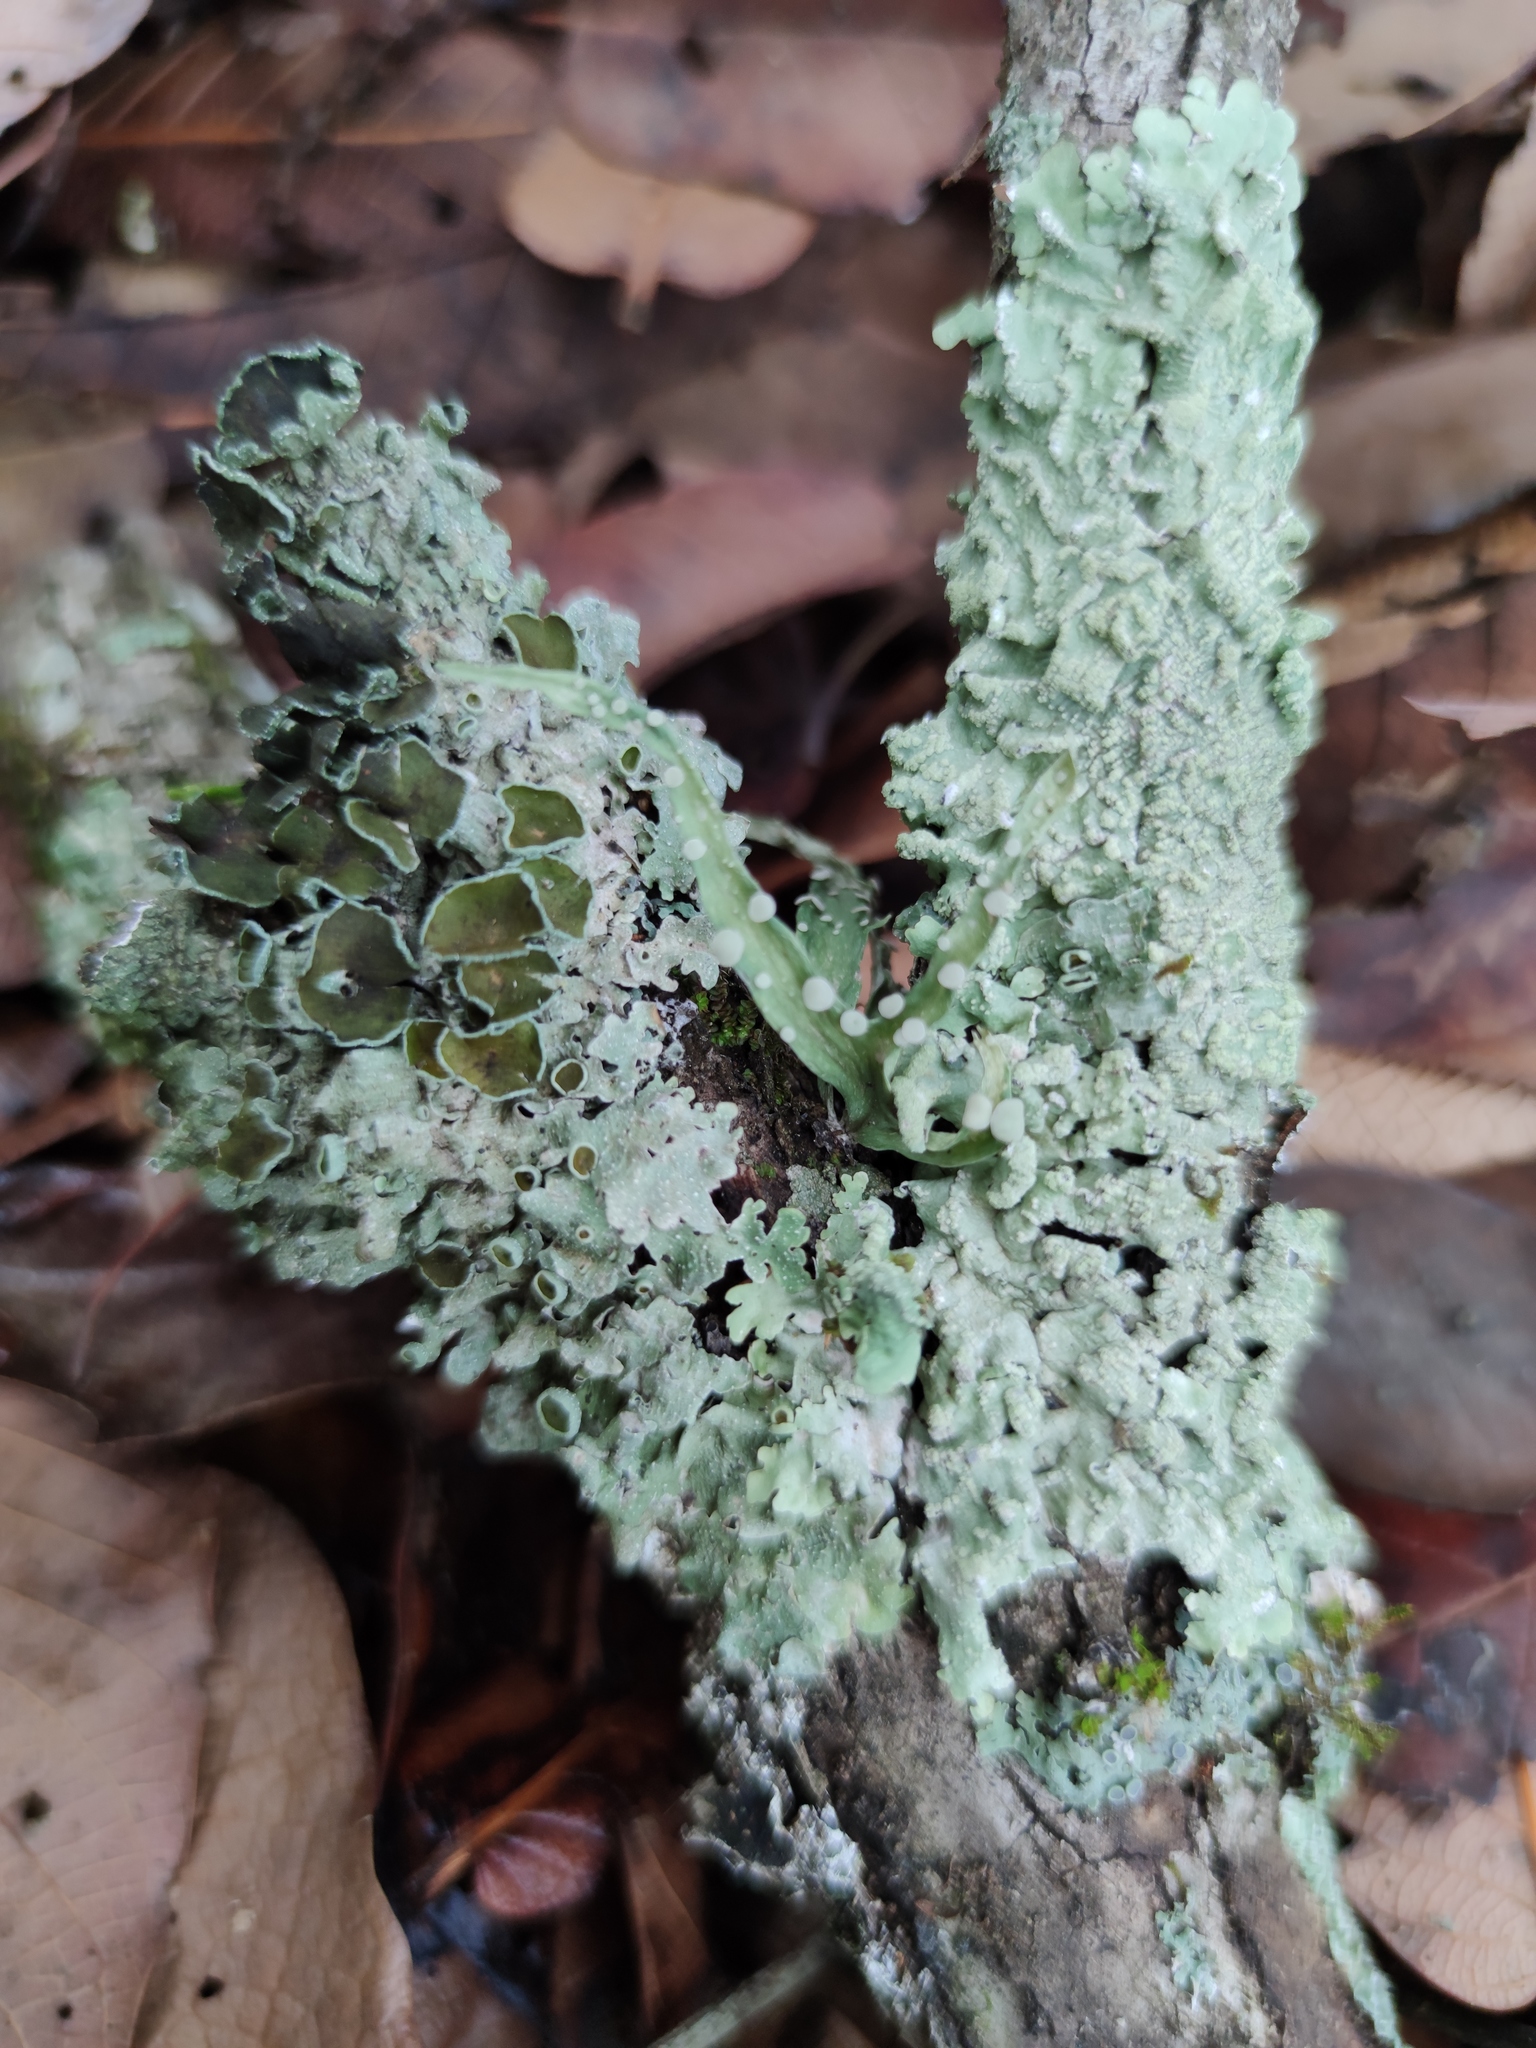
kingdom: Fungi
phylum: Ascomycota
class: Lecanoromycetes
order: Lecanorales
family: Ramalinaceae
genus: Ramalina
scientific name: Ramalina celastri
